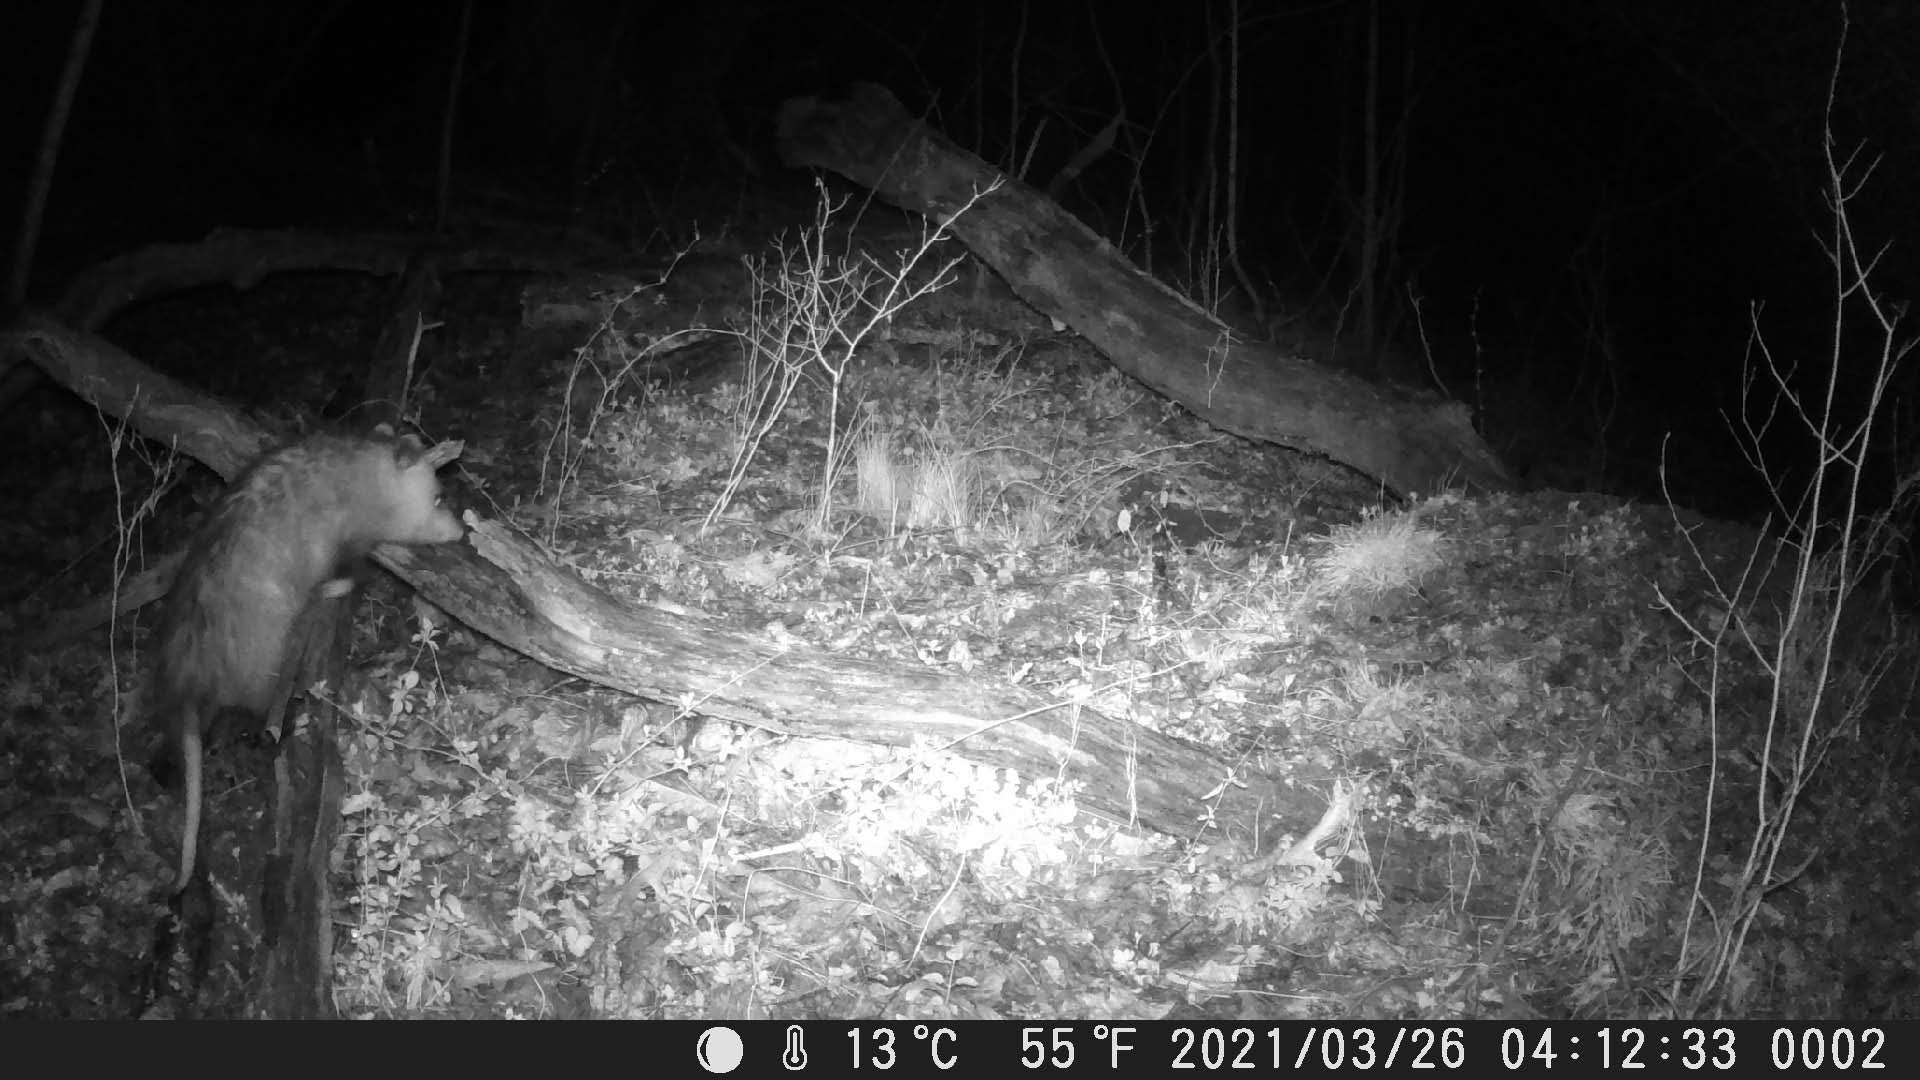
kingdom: Animalia
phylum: Chordata
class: Mammalia
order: Didelphimorphia
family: Didelphidae
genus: Didelphis
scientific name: Didelphis virginiana
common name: Virginia opossum
